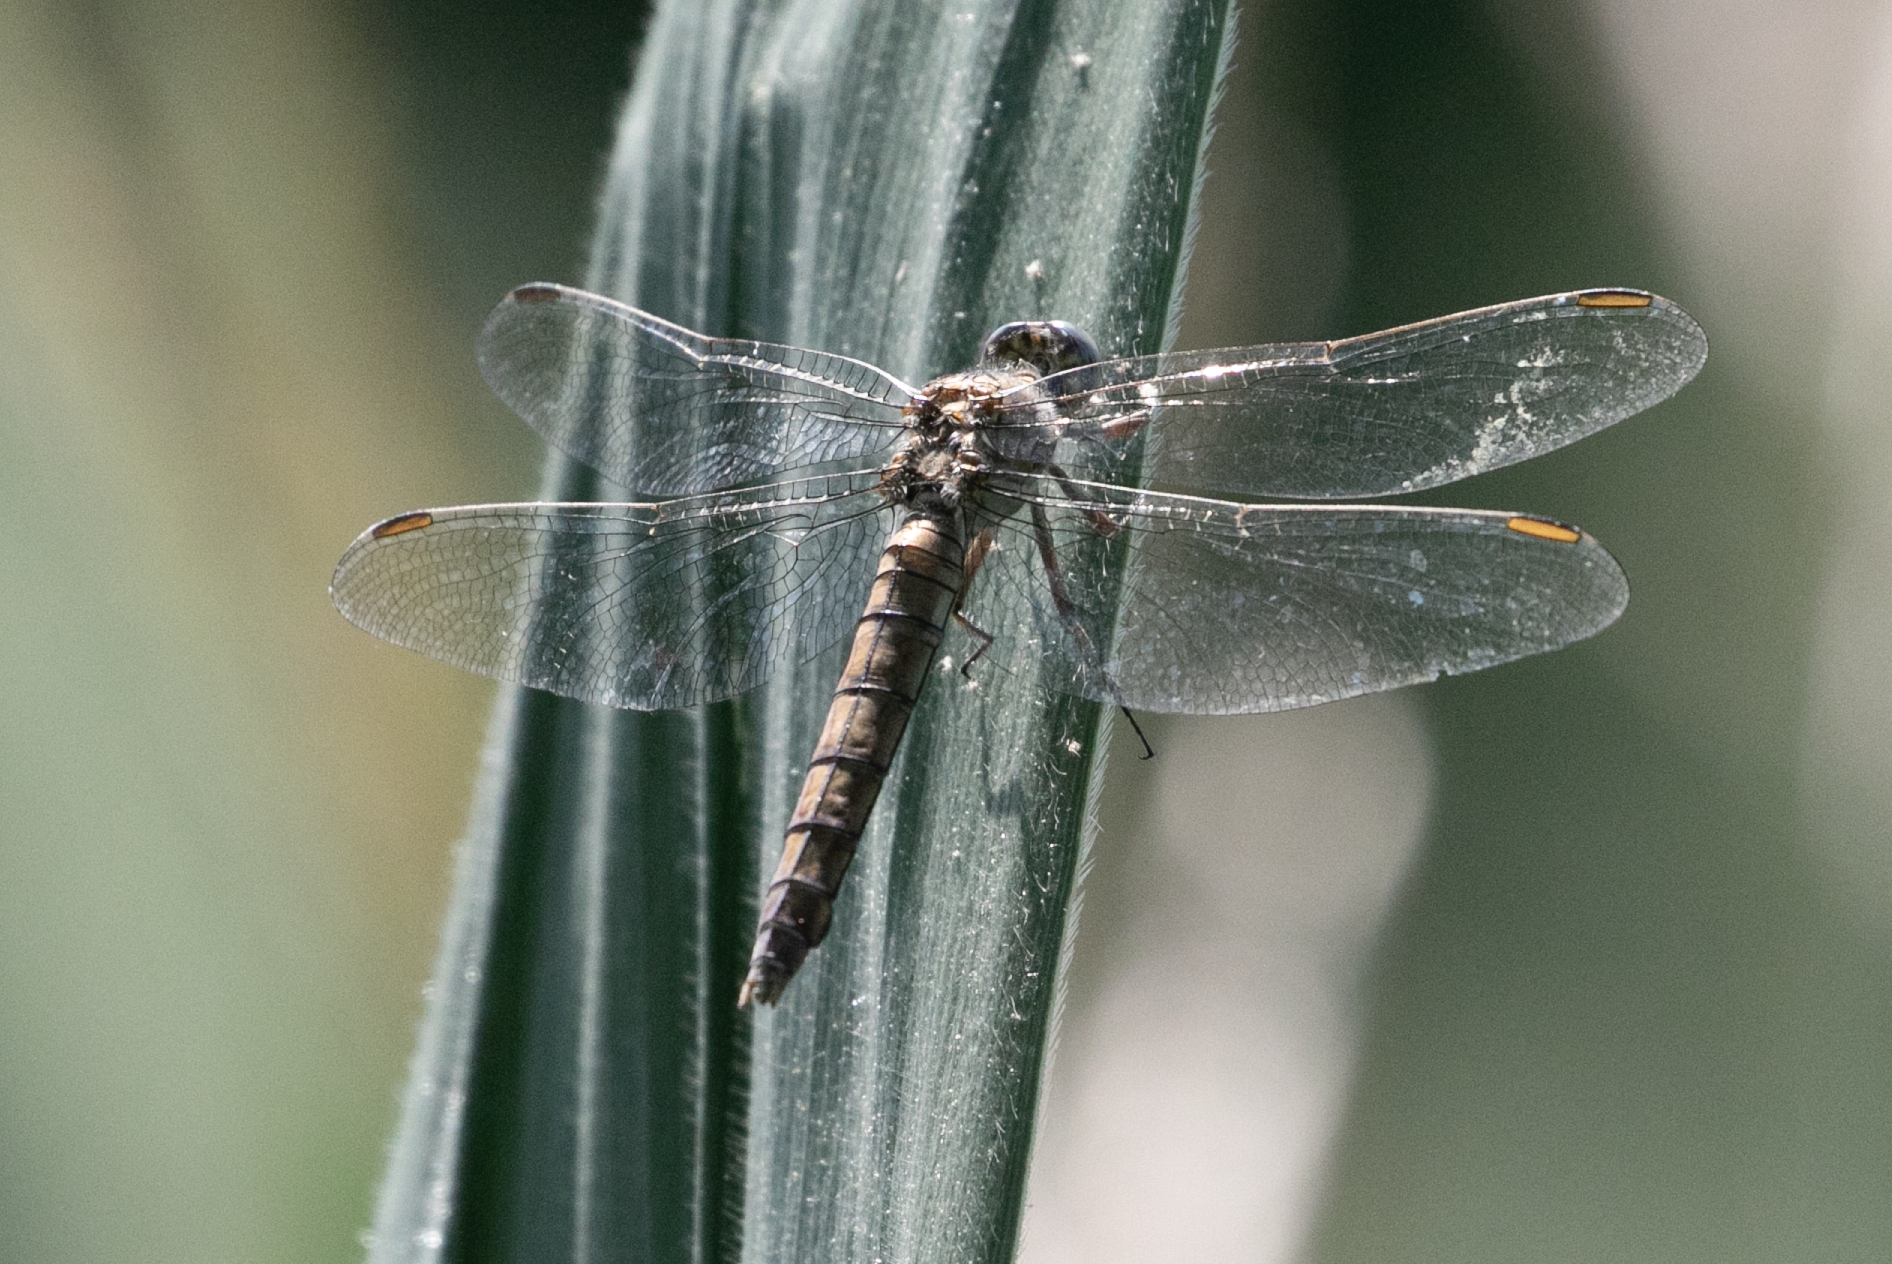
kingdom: Animalia
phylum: Arthropoda
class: Insecta
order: Odonata
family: Libellulidae
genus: Orthetrum
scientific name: Orthetrum brunneum
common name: Southern skimmer
